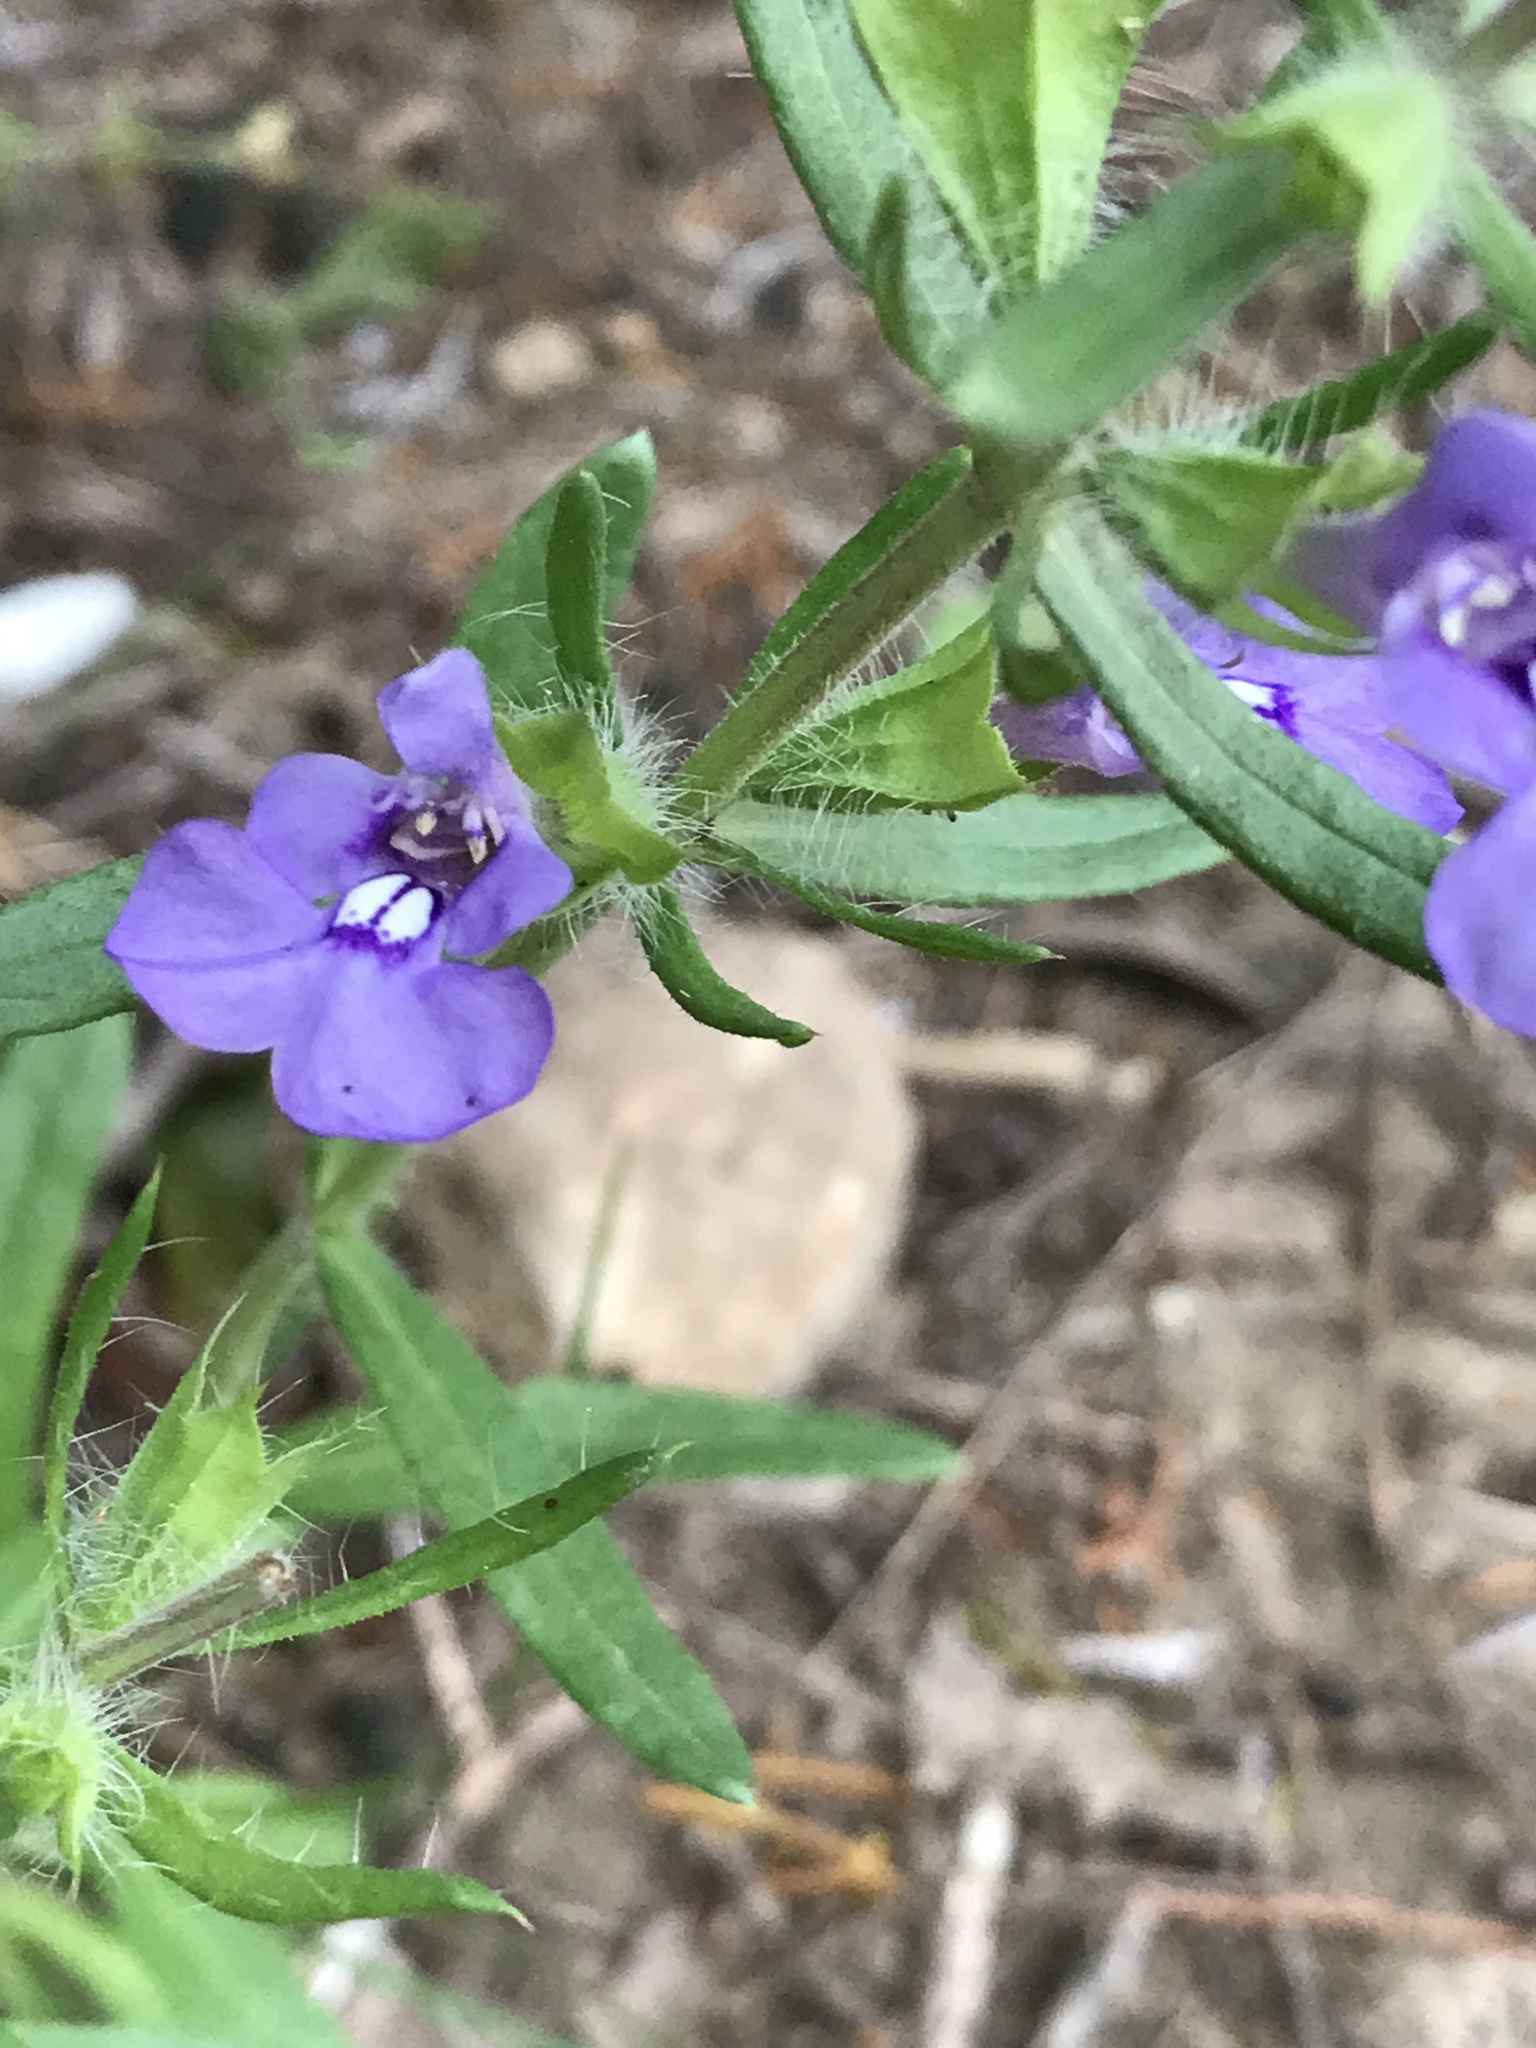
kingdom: Plantae
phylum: Tracheophyta
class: Magnoliopsida
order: Lamiales
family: Lamiaceae
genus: Salvia
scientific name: Salvia texana
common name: Texas sage
